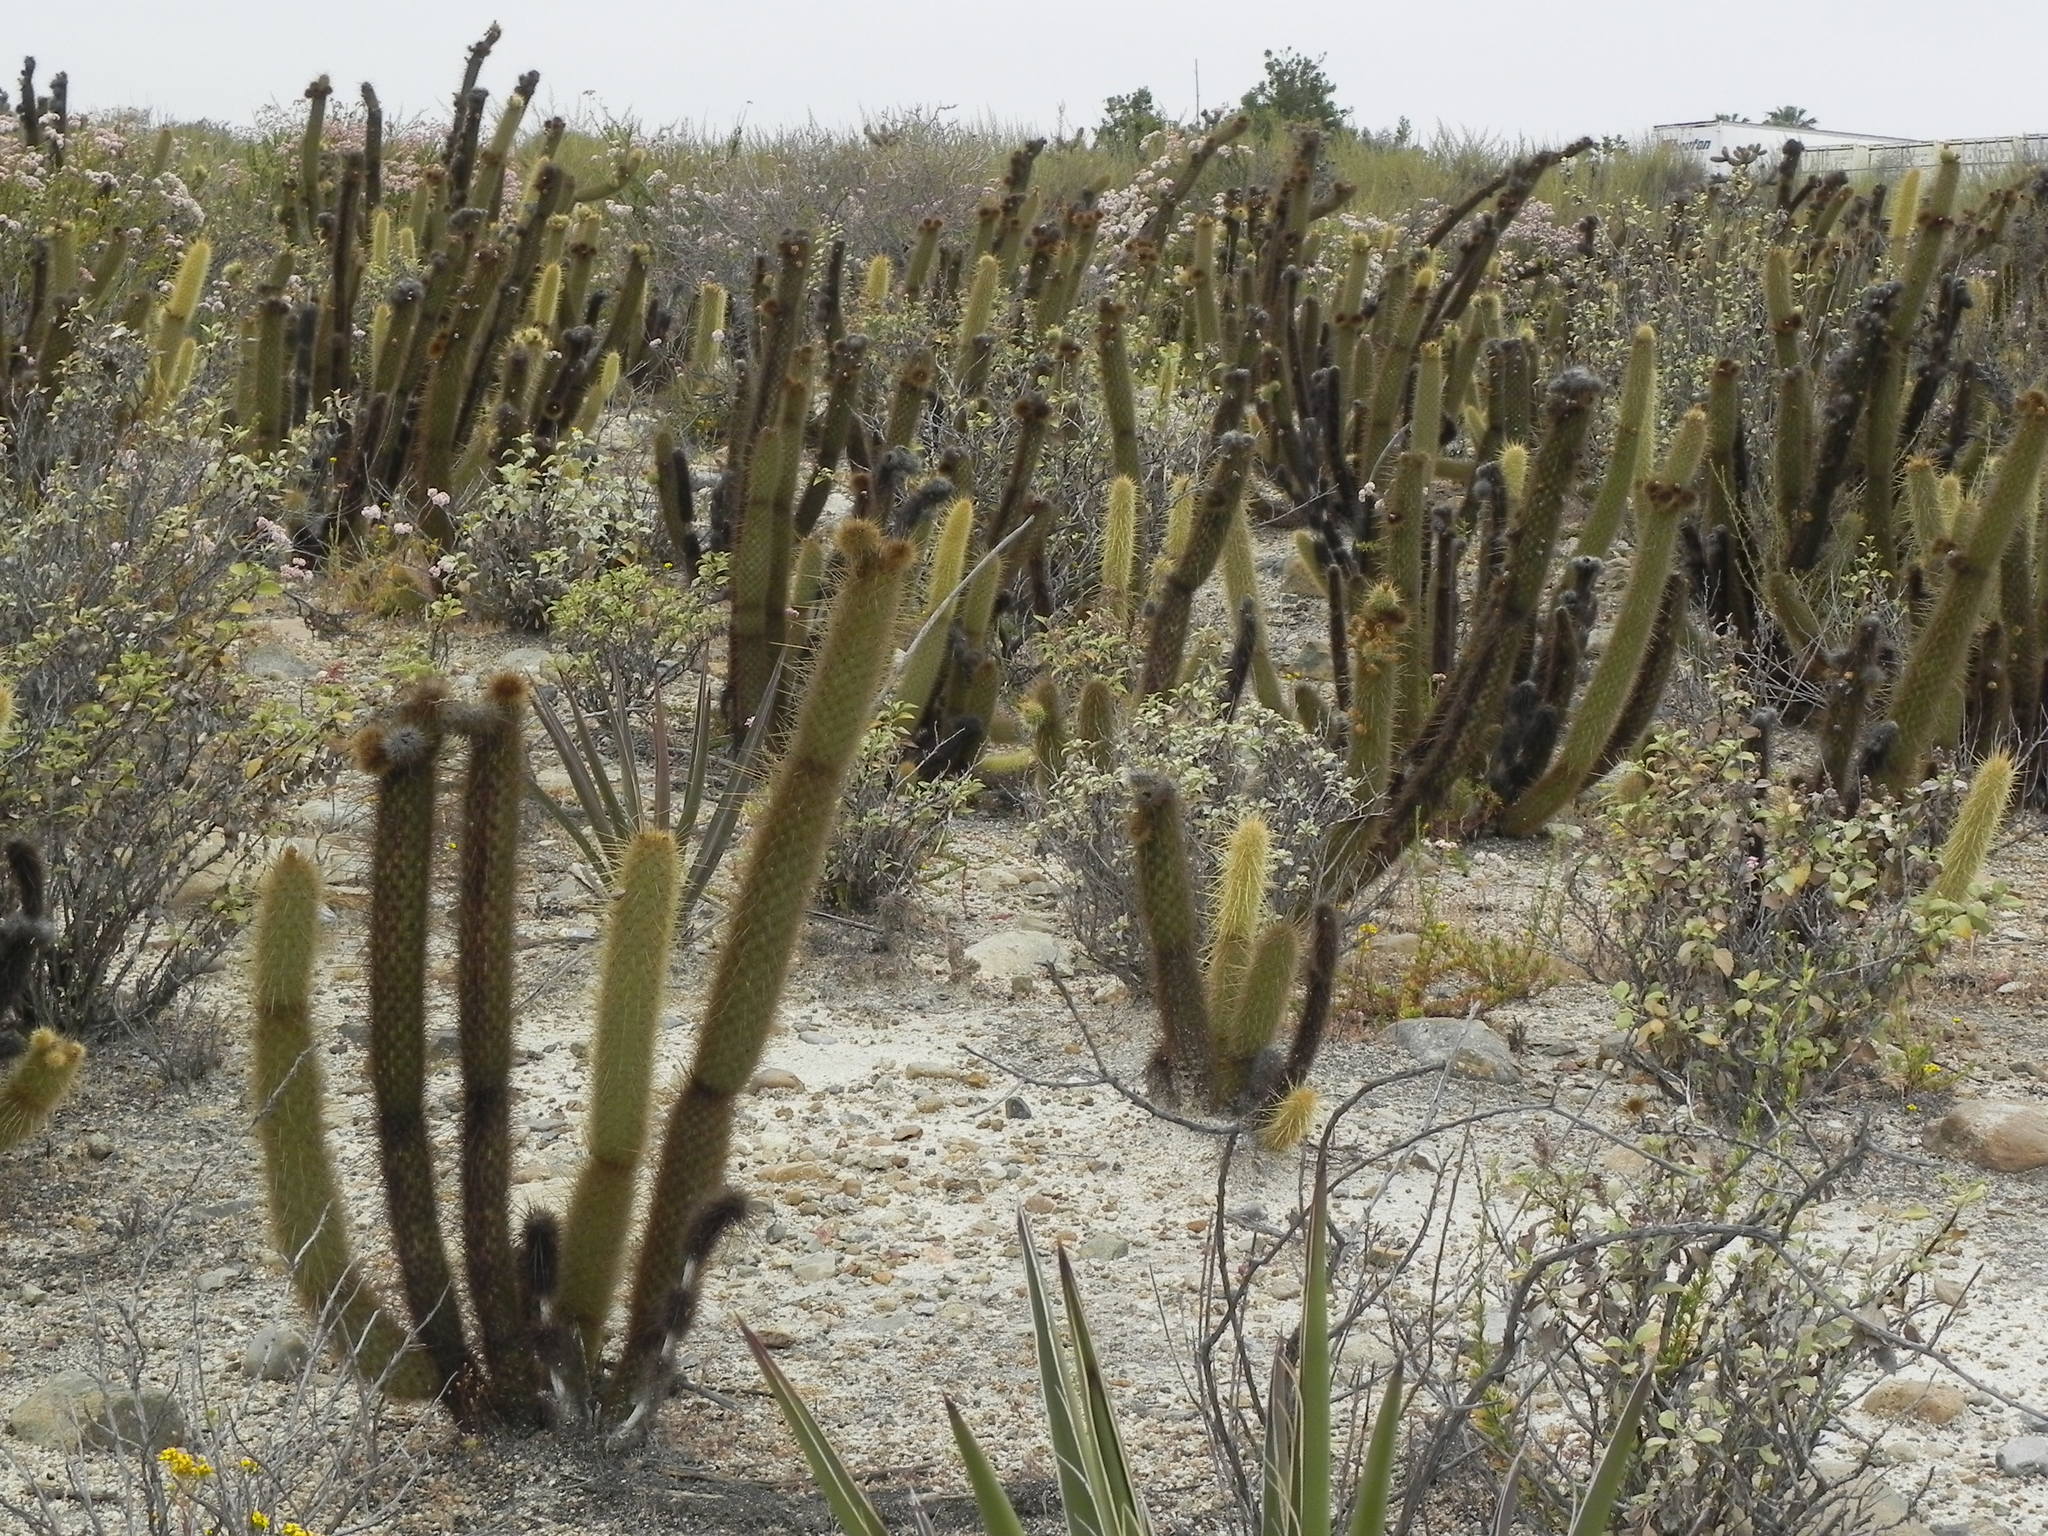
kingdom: Plantae
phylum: Tracheophyta
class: Magnoliopsida
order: Caryophyllales
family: Cactaceae
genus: Bergerocactus
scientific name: Bergerocactus emoryi
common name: Golden snakecactus
